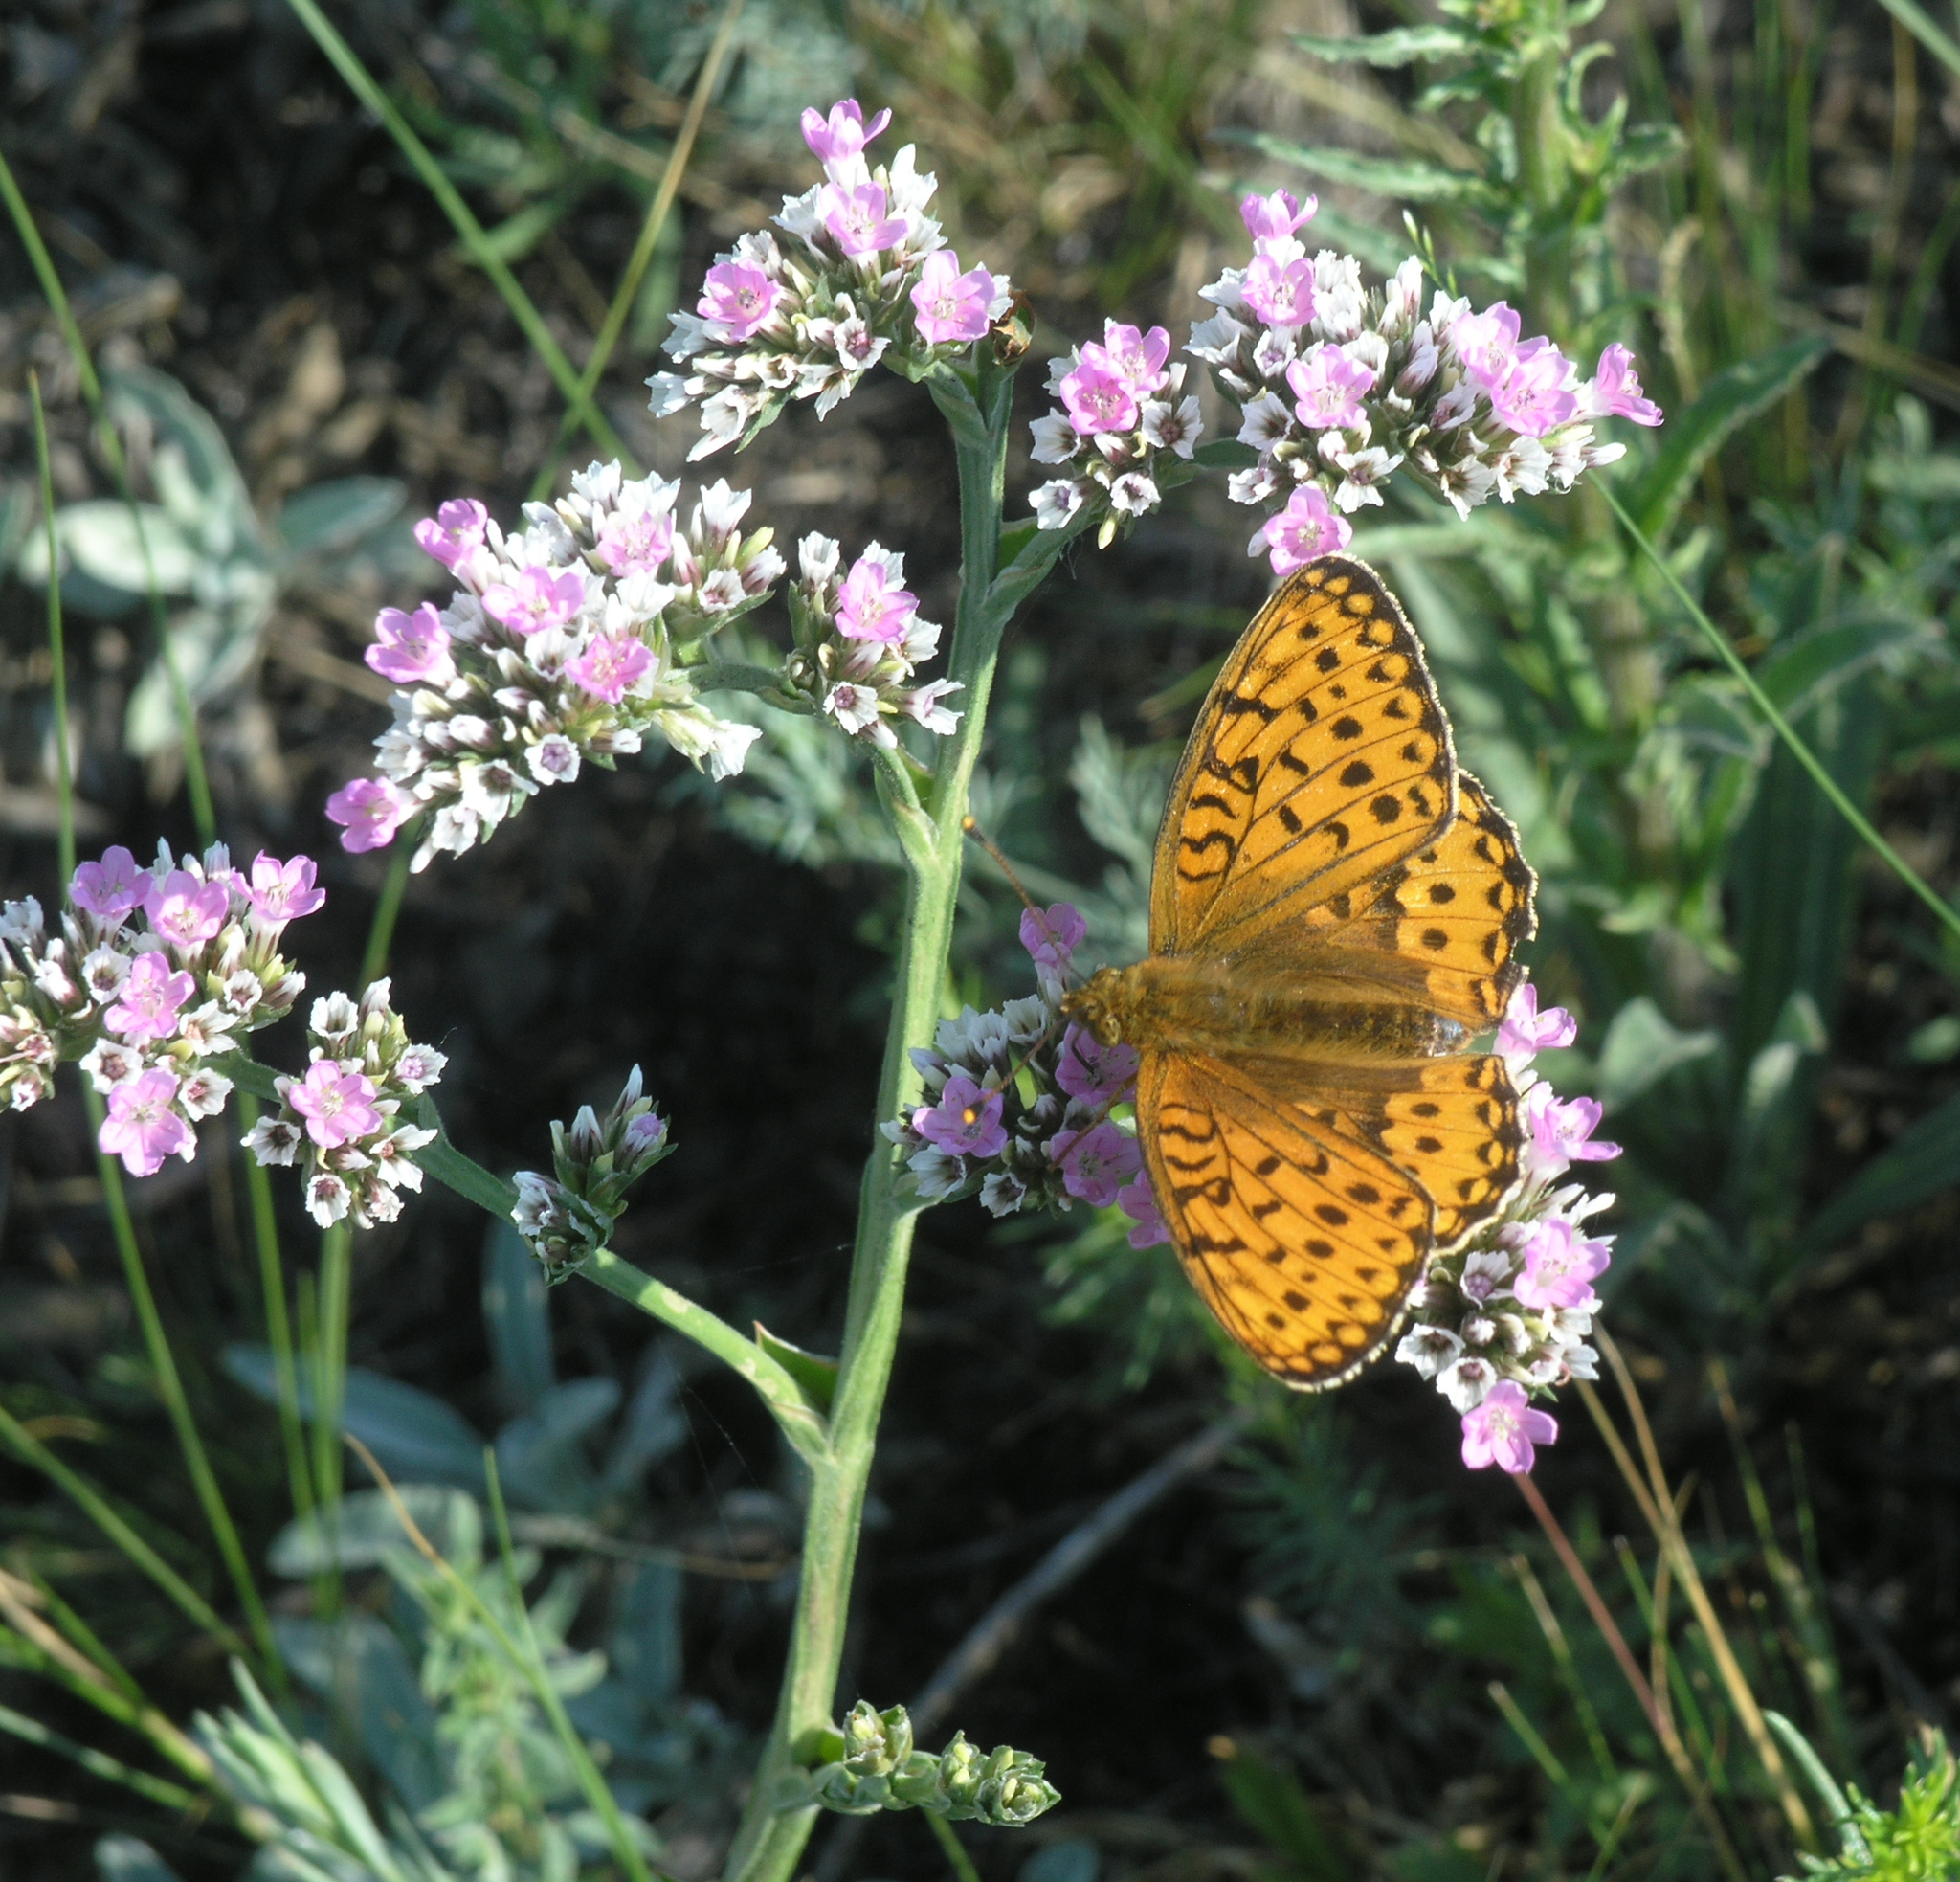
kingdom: Animalia
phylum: Arthropoda
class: Insecta
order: Lepidoptera
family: Nymphalidae
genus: Speyeria
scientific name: Speyeria aglaja
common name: Dark green fritillary
